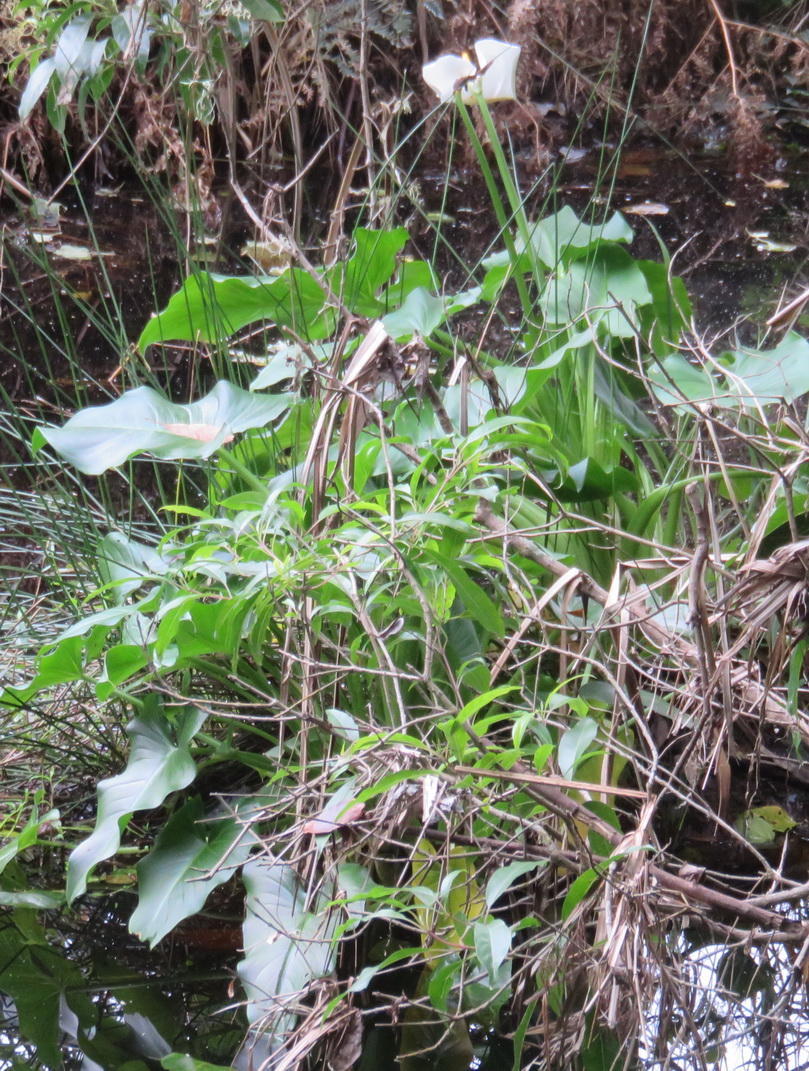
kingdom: Plantae
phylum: Tracheophyta
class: Liliopsida
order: Alismatales
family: Araceae
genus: Zantedeschia
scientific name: Zantedeschia aethiopica
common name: Altar-lily
